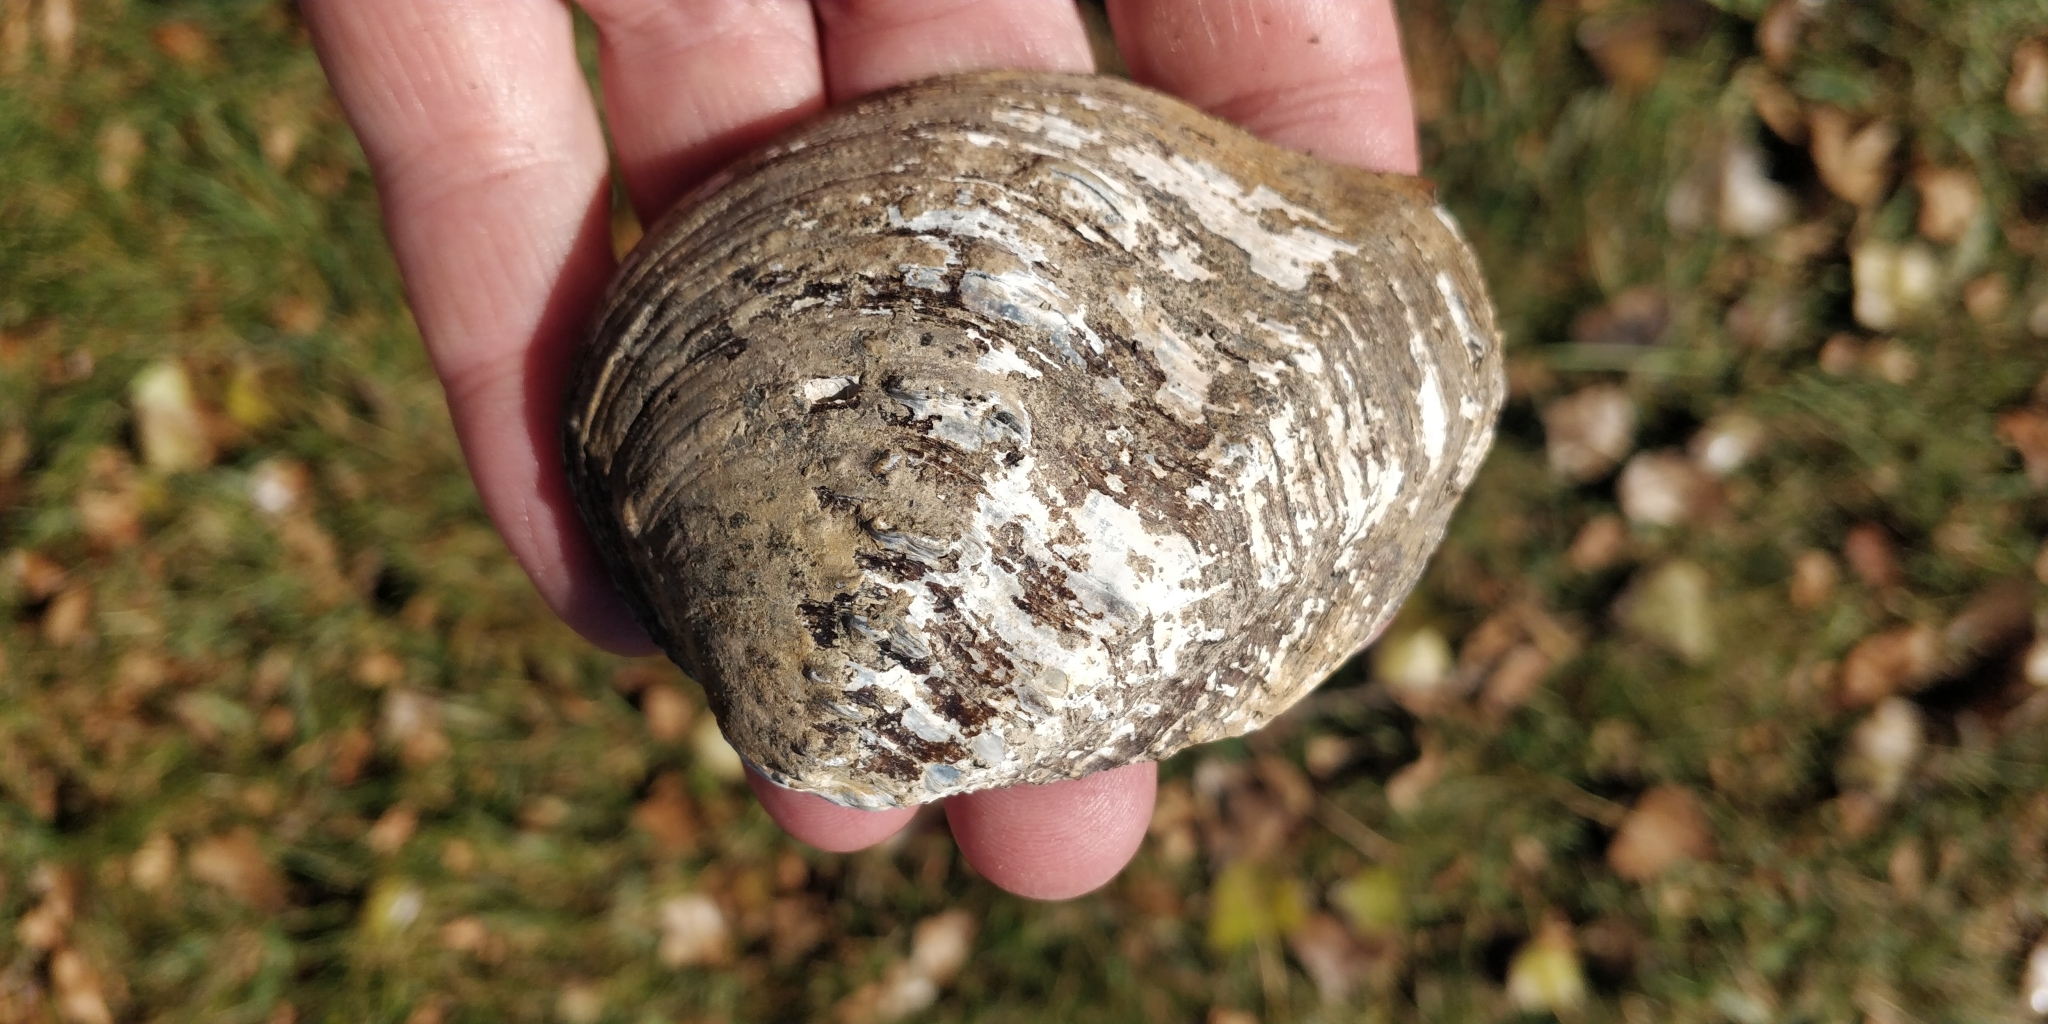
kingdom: Animalia
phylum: Mollusca
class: Bivalvia
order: Unionida
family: Unionidae
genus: Tritogonia
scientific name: Tritogonia nobilis
